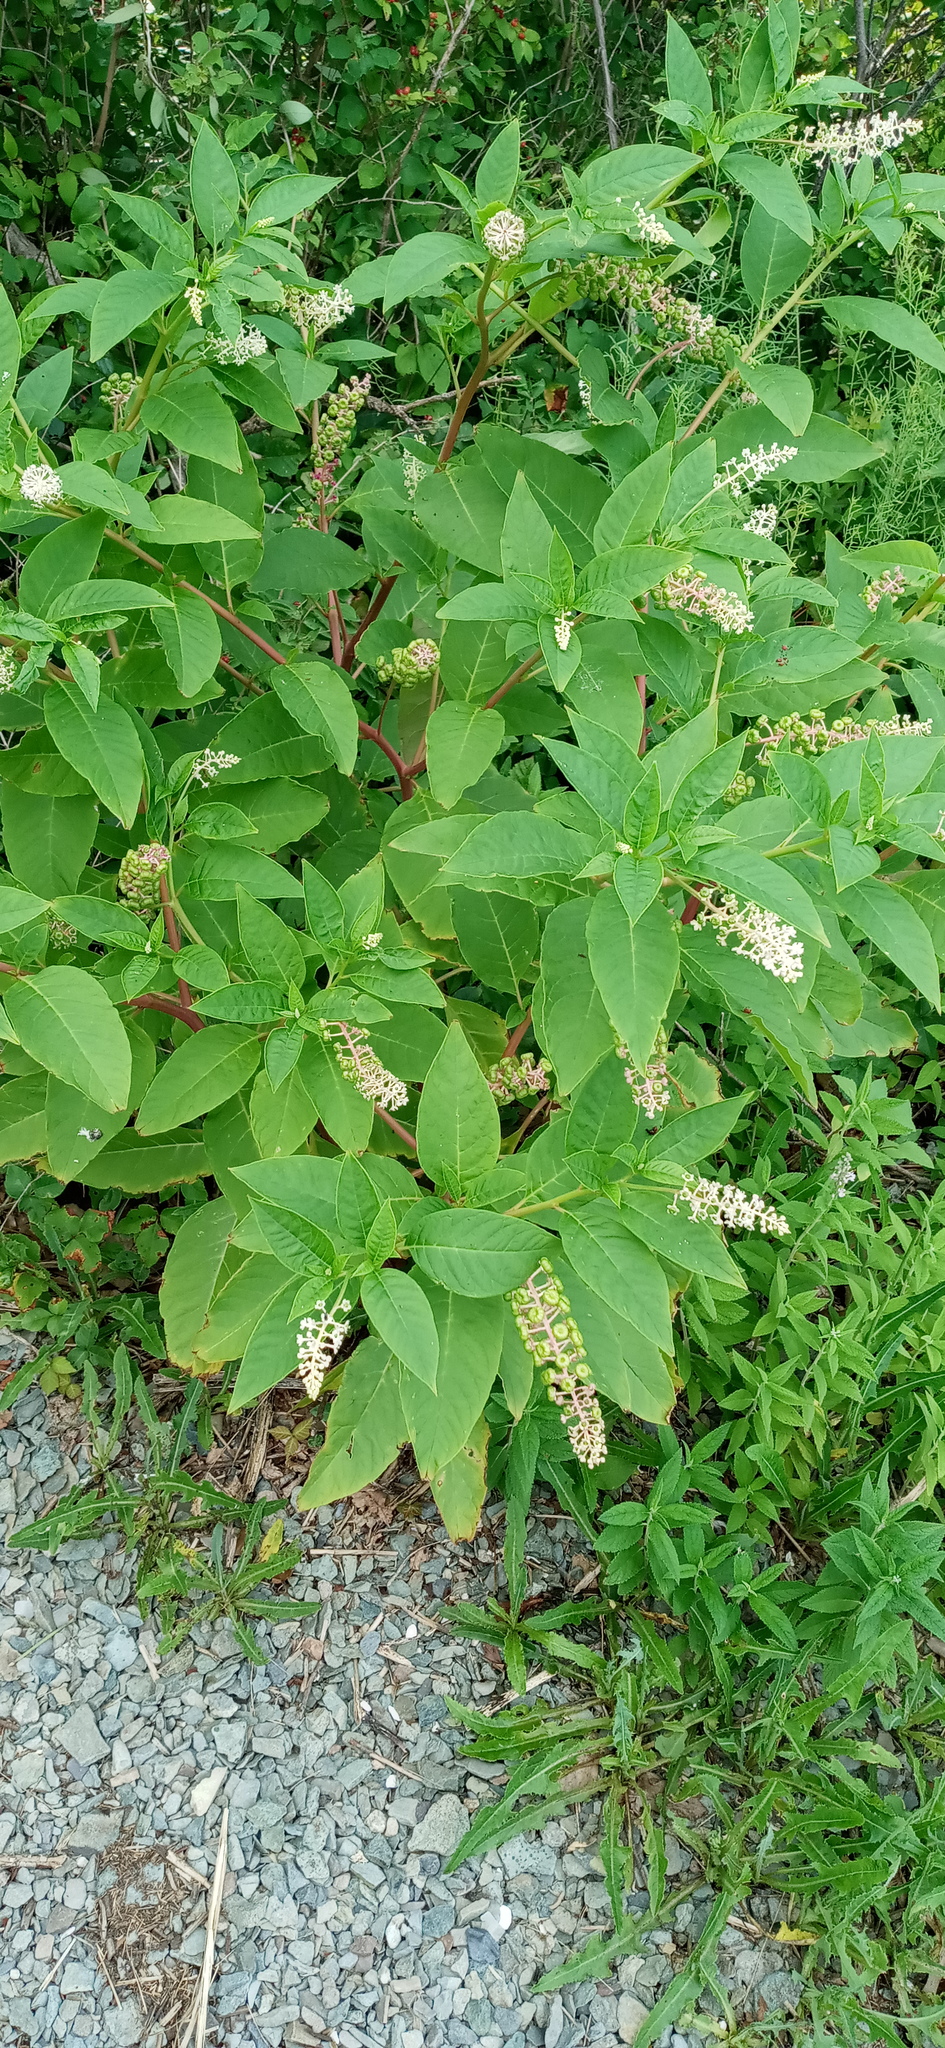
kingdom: Plantae
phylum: Tracheophyta
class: Magnoliopsida
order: Caryophyllales
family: Phytolaccaceae
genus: Phytolacca
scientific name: Phytolacca americana
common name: American pokeweed
